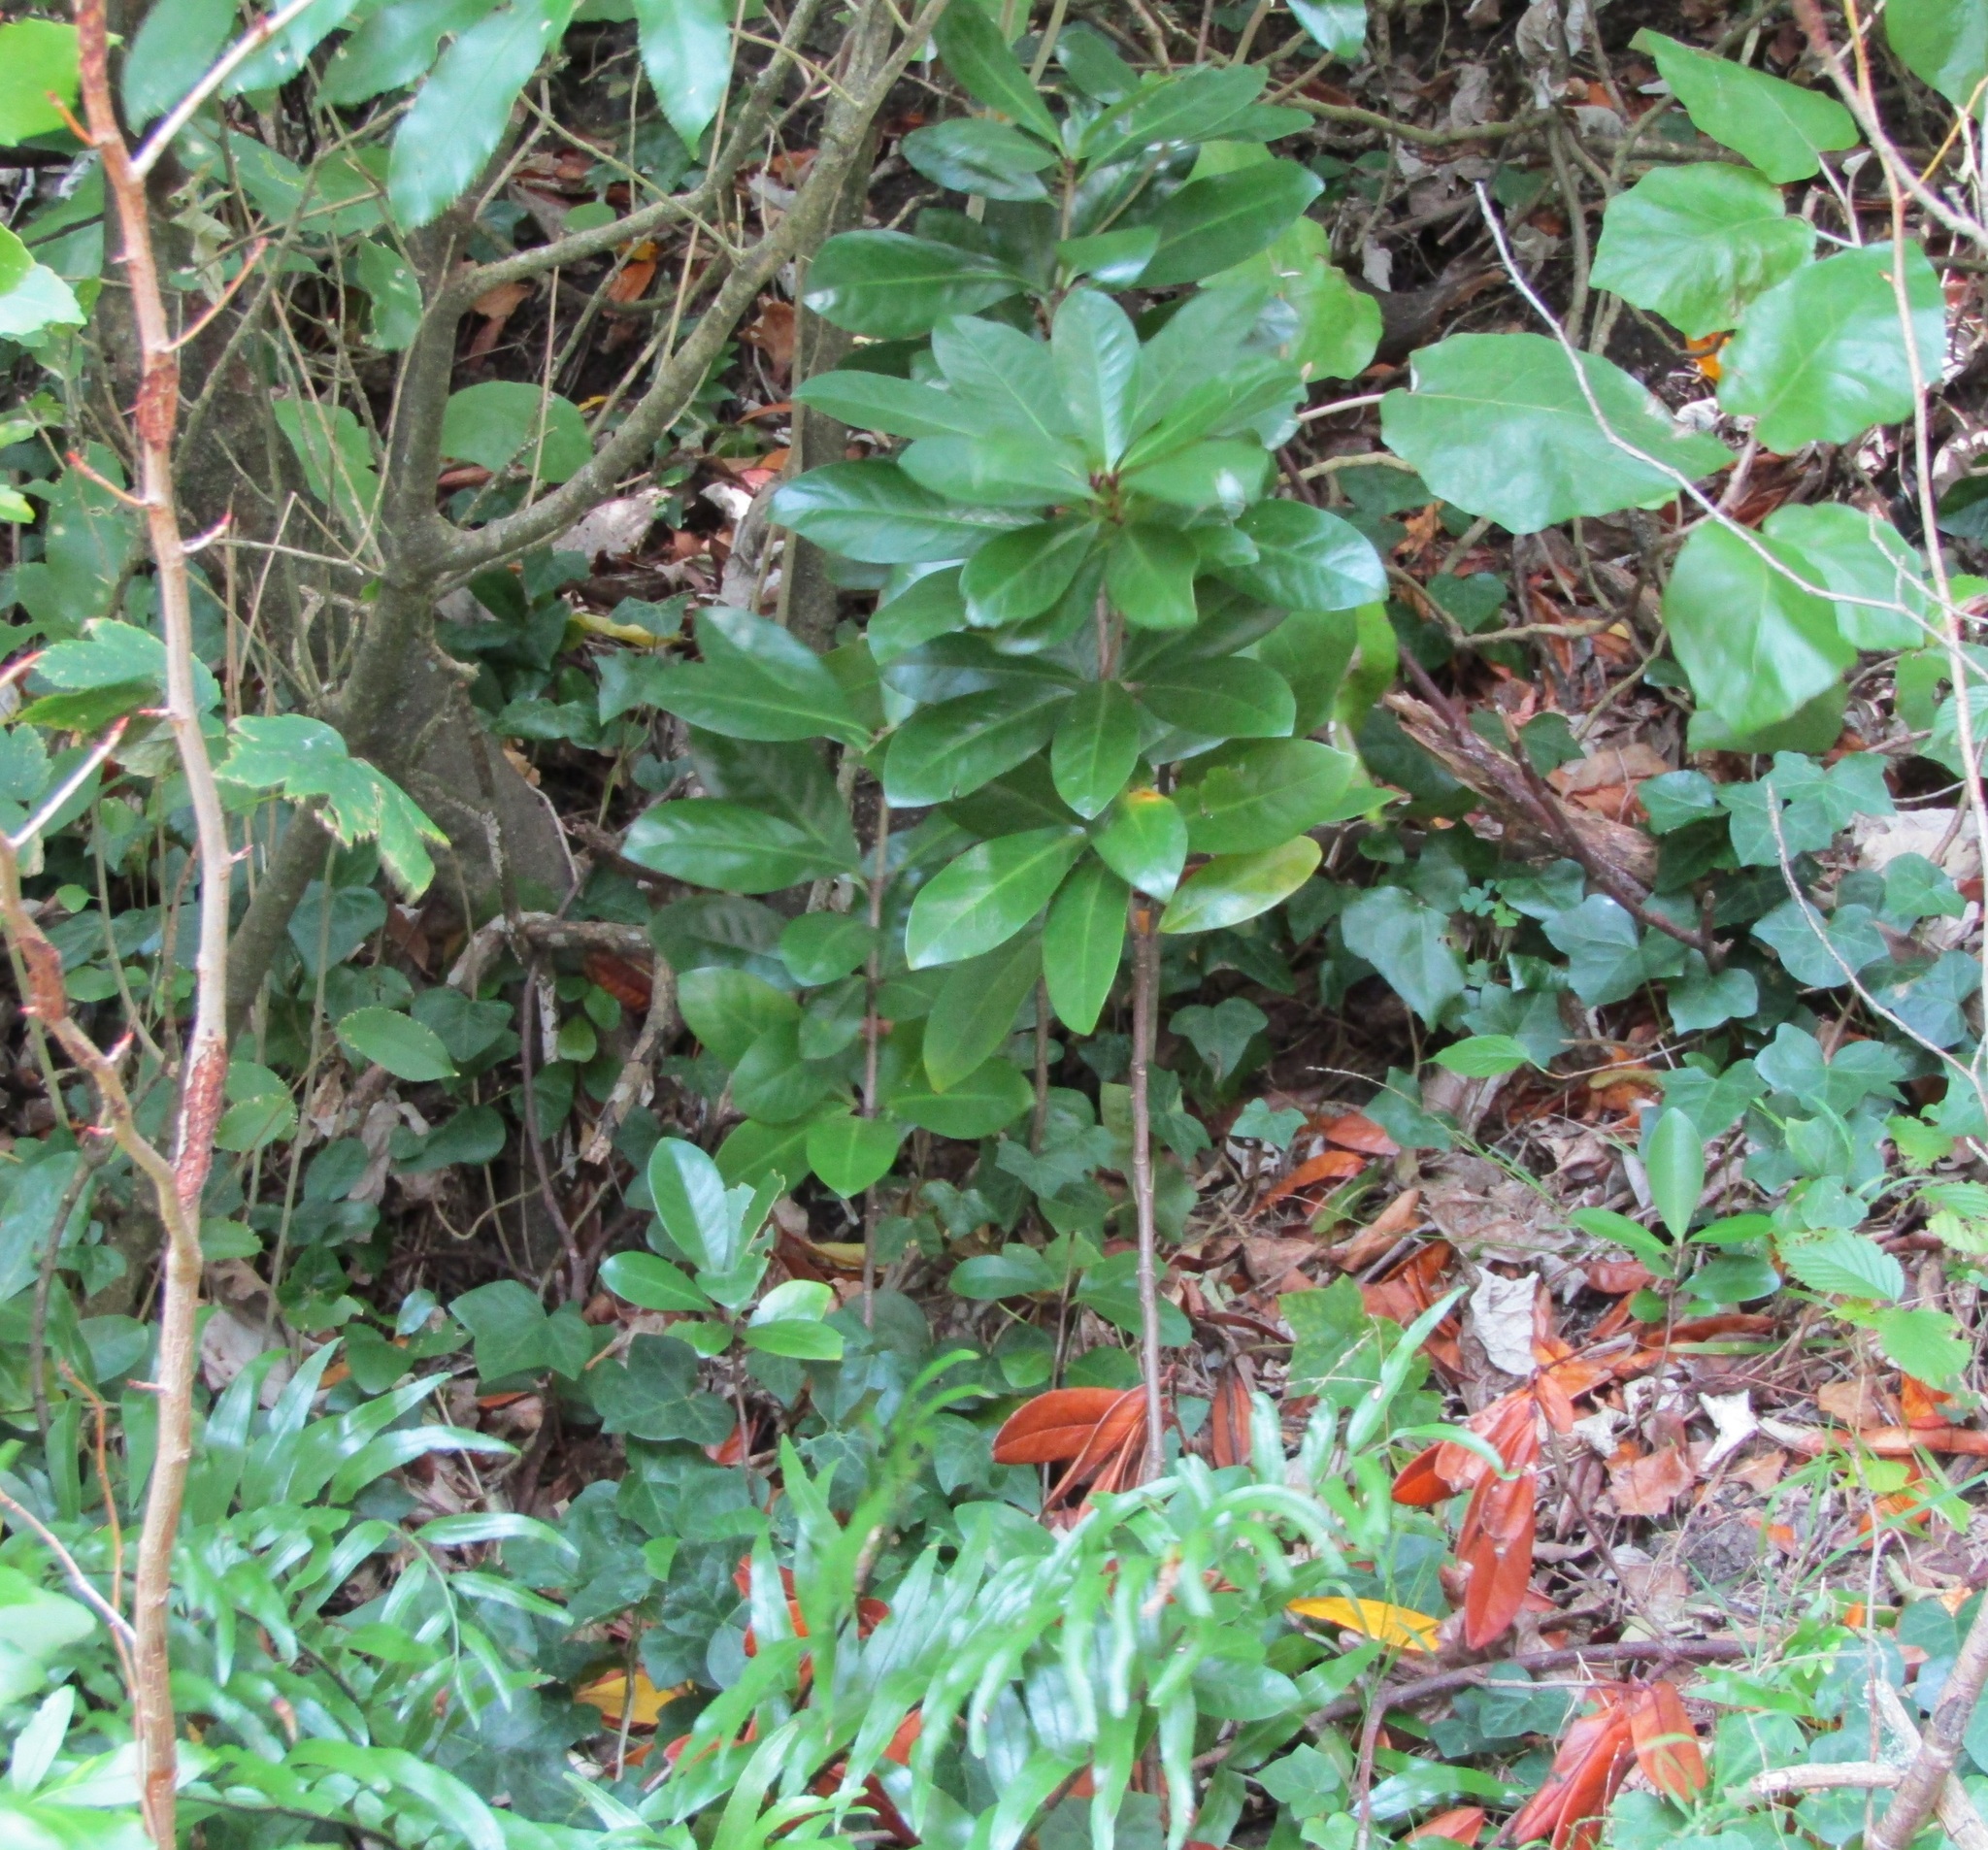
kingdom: Plantae
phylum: Tracheophyta
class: Magnoliopsida
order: Cucurbitales
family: Corynocarpaceae
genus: Corynocarpus
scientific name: Corynocarpus laevigatus
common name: New zealand laurel
